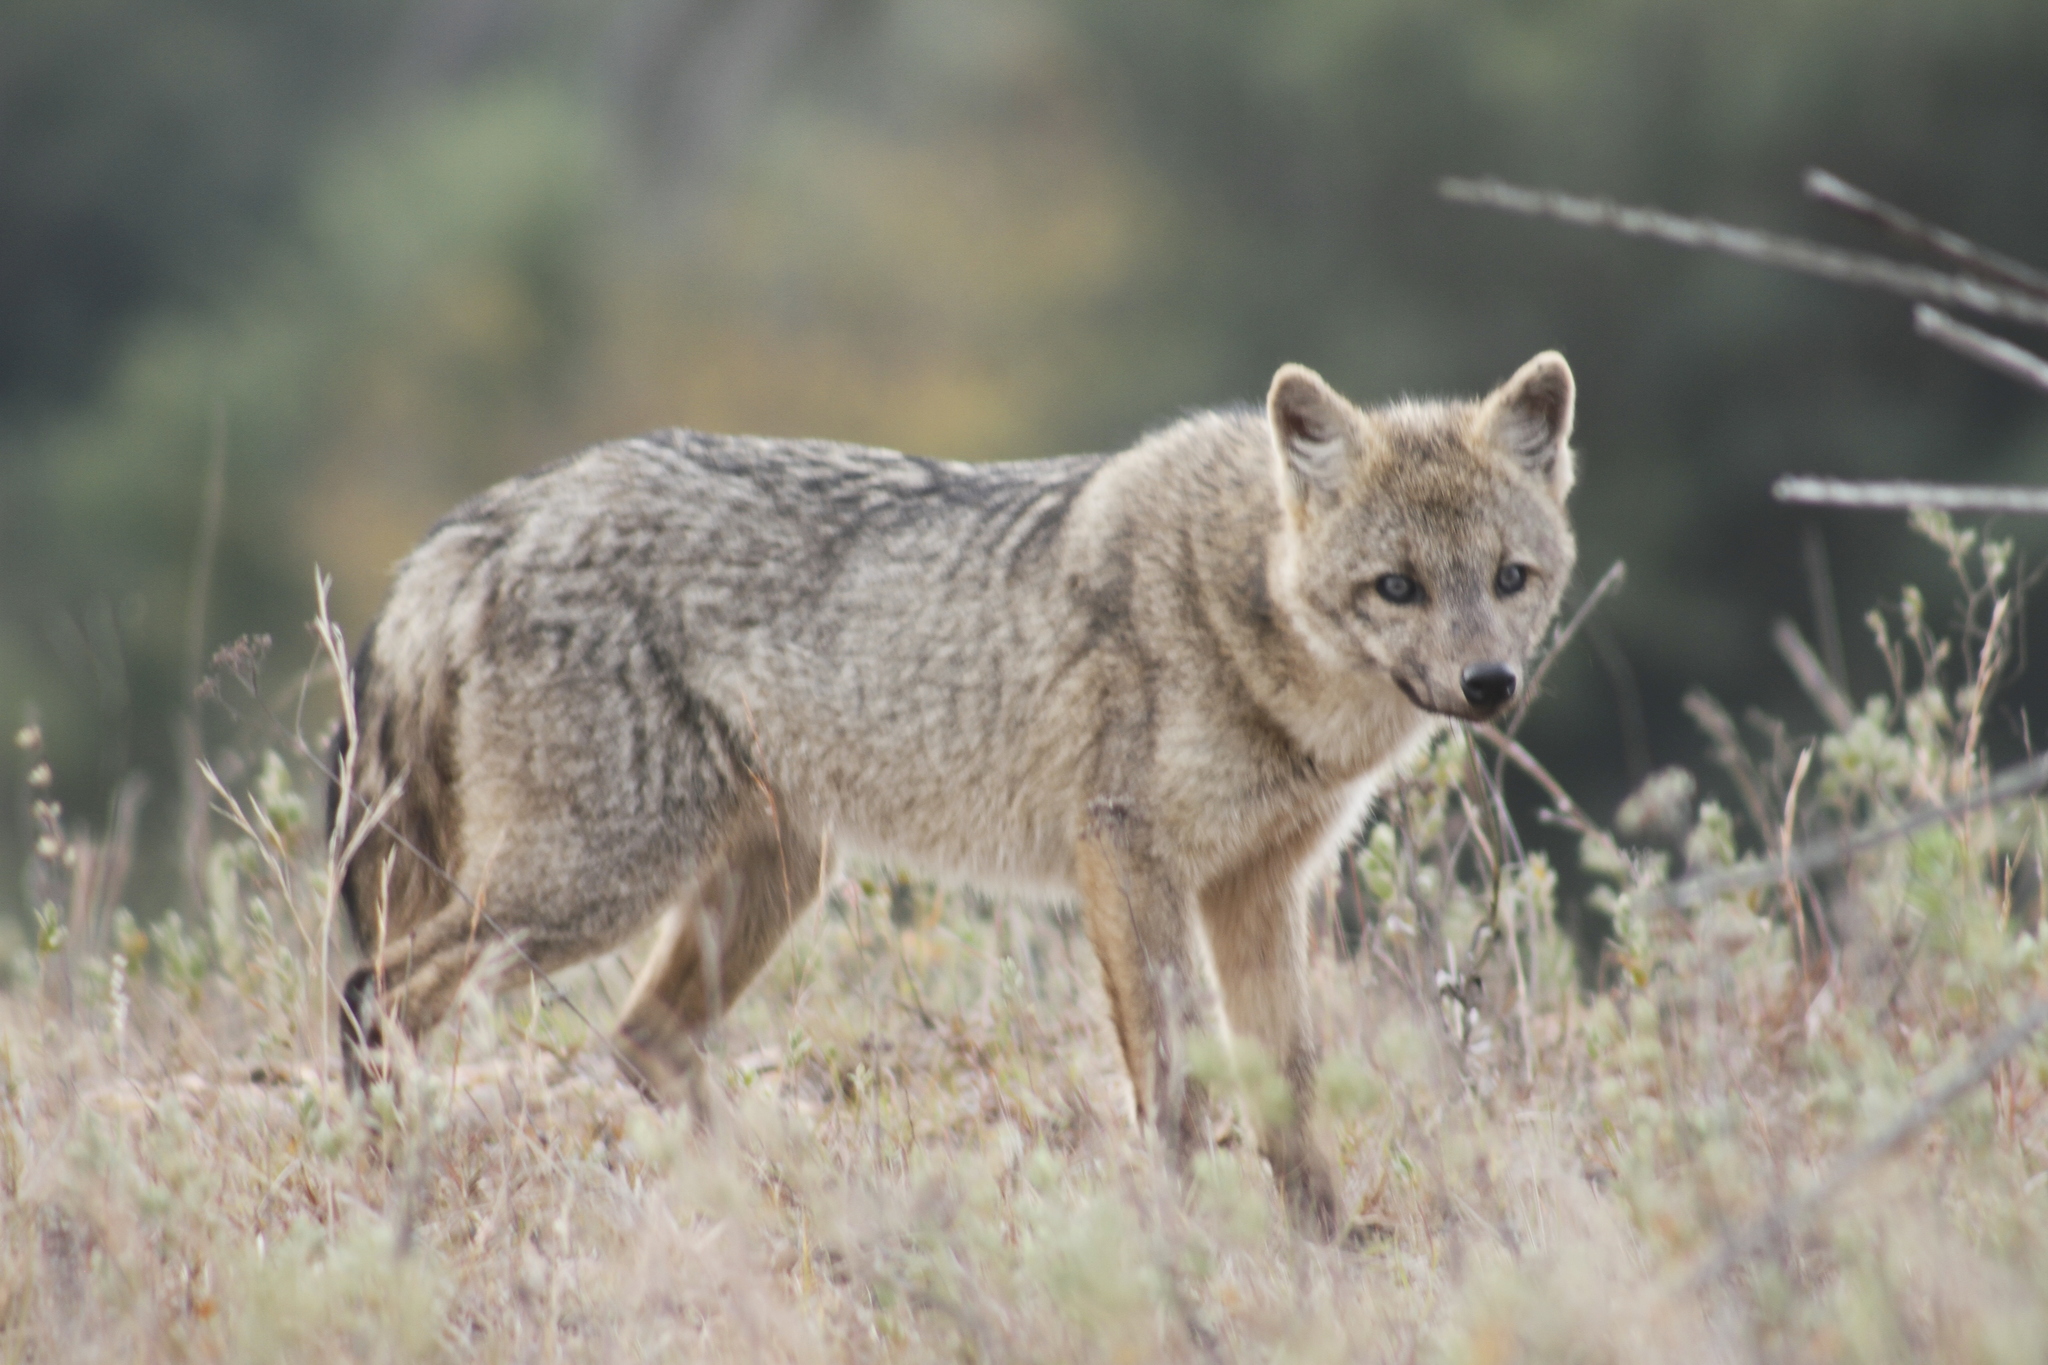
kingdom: Animalia
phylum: Chordata
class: Mammalia
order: Carnivora
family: Canidae
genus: Cerdocyon
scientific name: Cerdocyon thous
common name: Crab-eating fox
